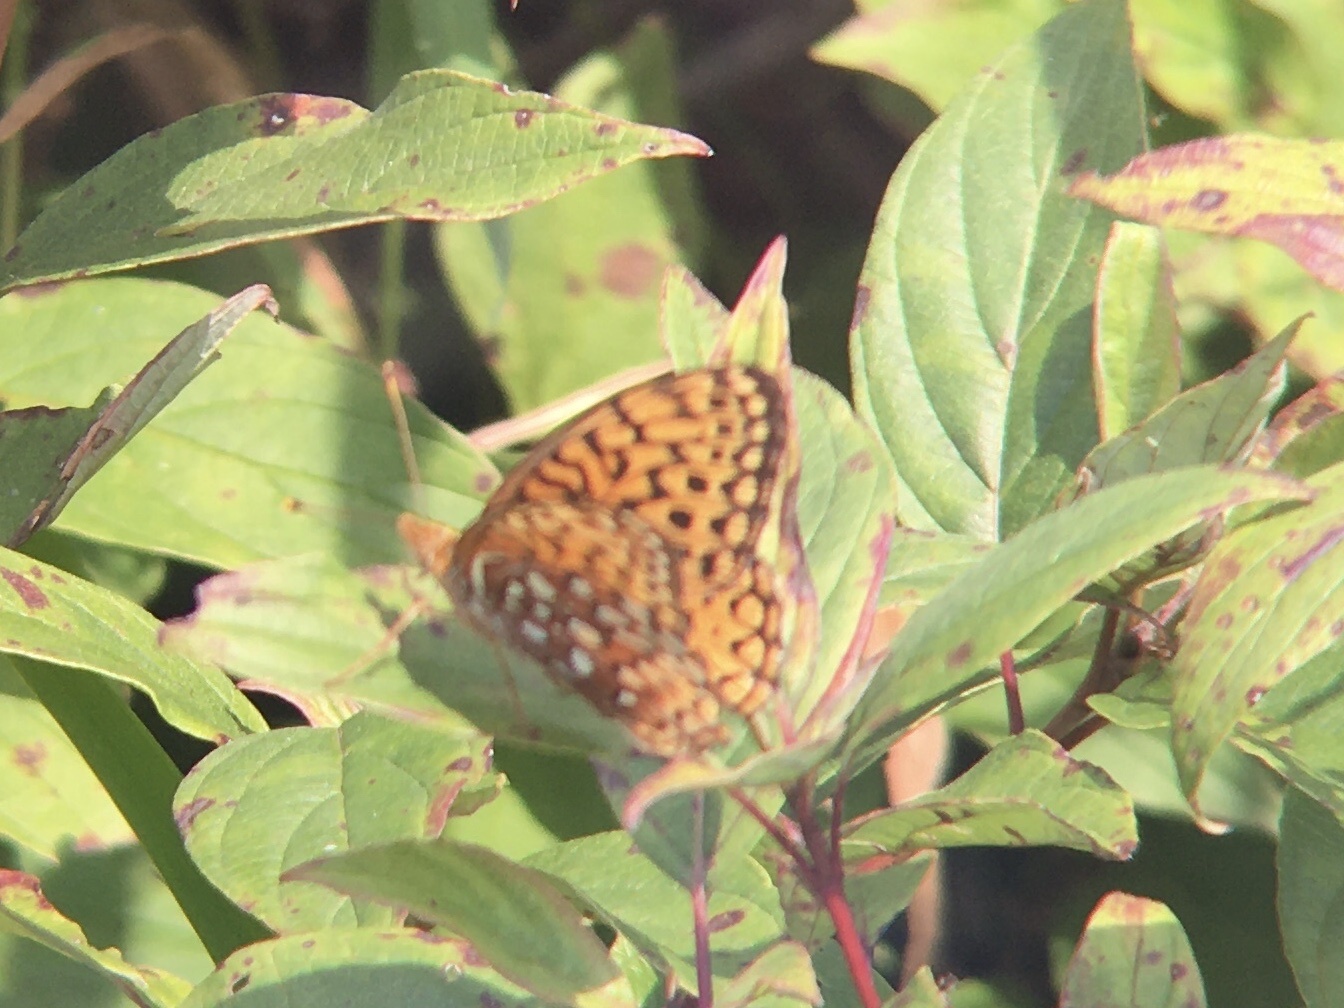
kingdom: Animalia
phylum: Arthropoda
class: Insecta
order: Lepidoptera
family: Nymphalidae
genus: Speyeria
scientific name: Speyeria aphrodite
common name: Aphrodite friitllary
